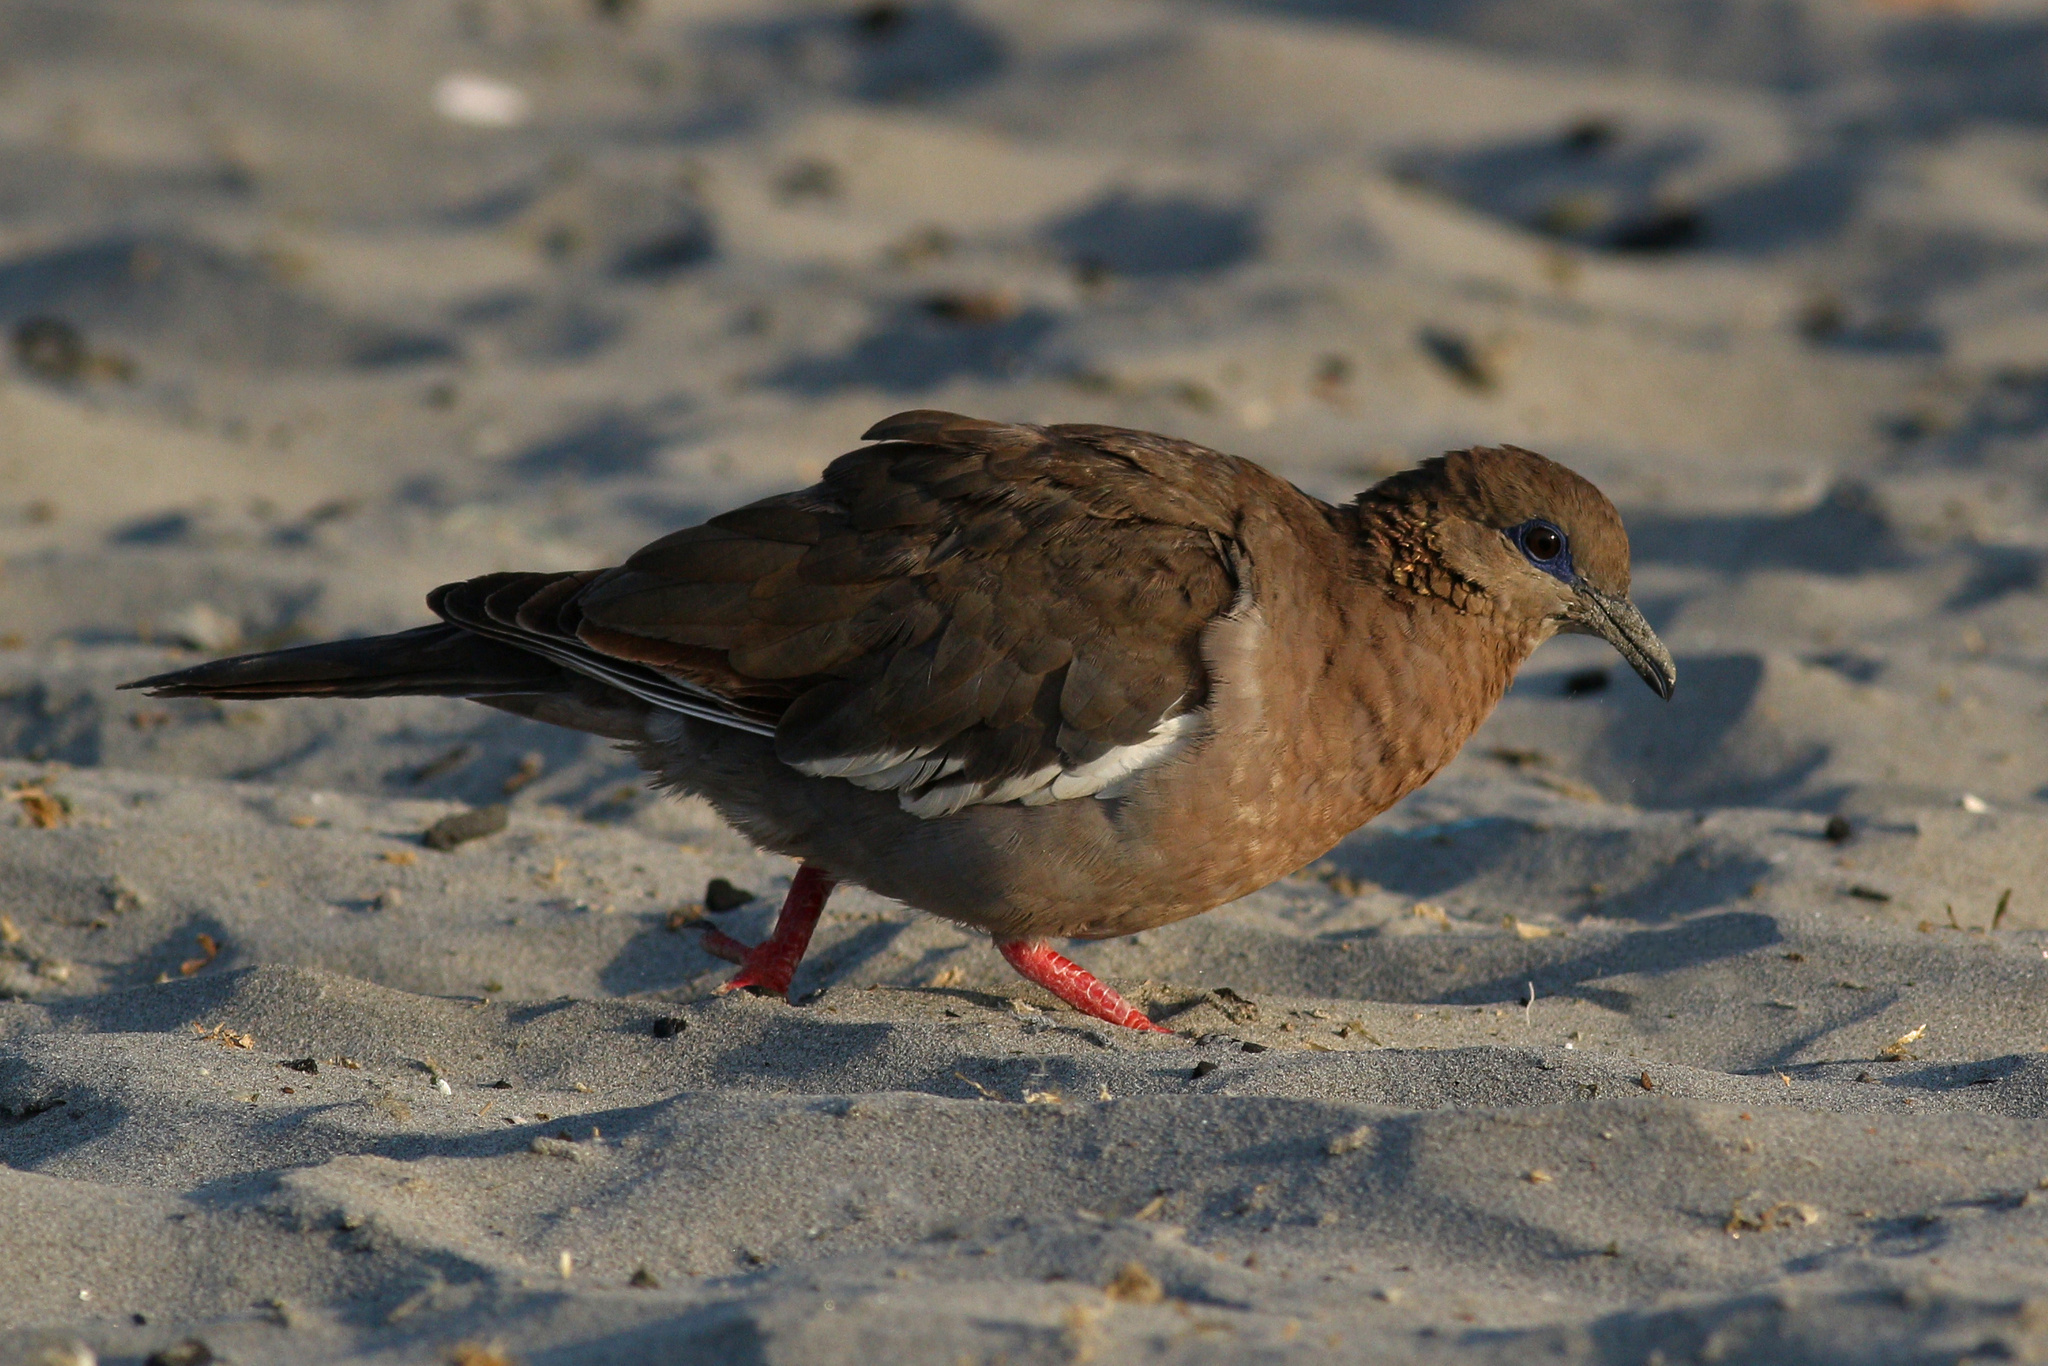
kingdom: Animalia
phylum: Chordata
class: Aves
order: Columbiformes
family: Columbidae
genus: Zenaida
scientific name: Zenaida meloda
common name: West peruvian dove
